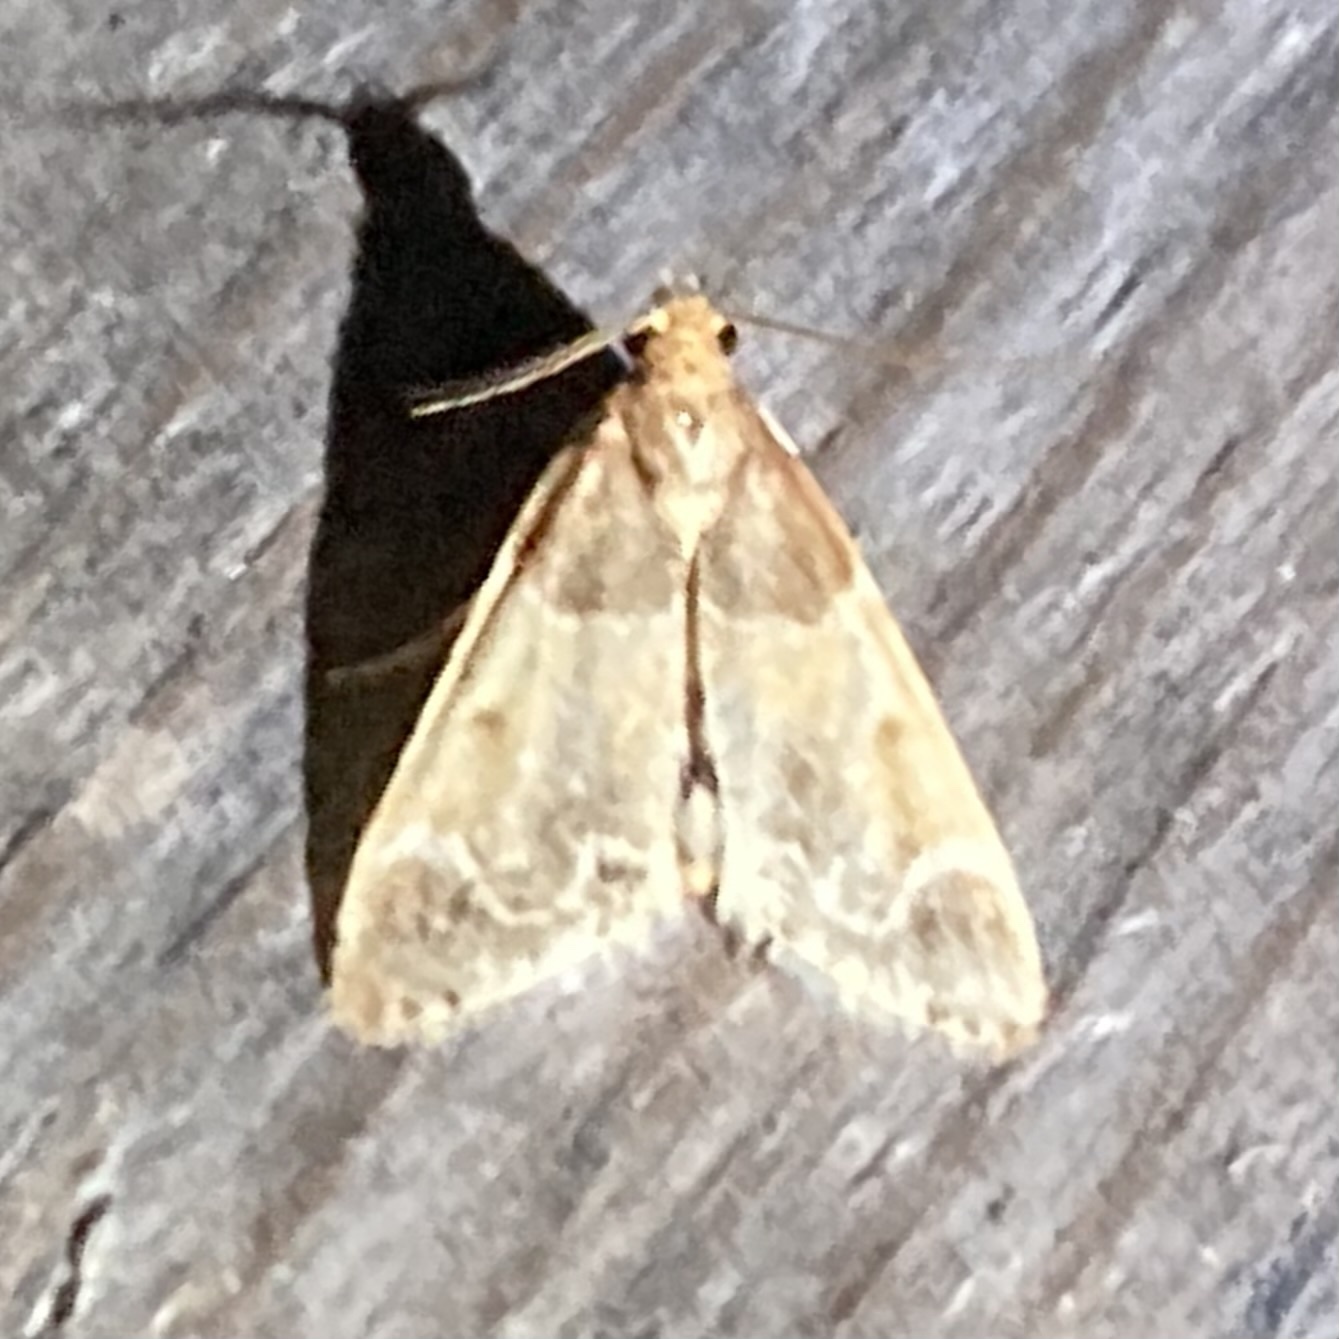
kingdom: Animalia
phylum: Arthropoda
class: Insecta
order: Lepidoptera
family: Pyralidae
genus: Pyralis
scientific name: Pyralis farinalis
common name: Meal moth
